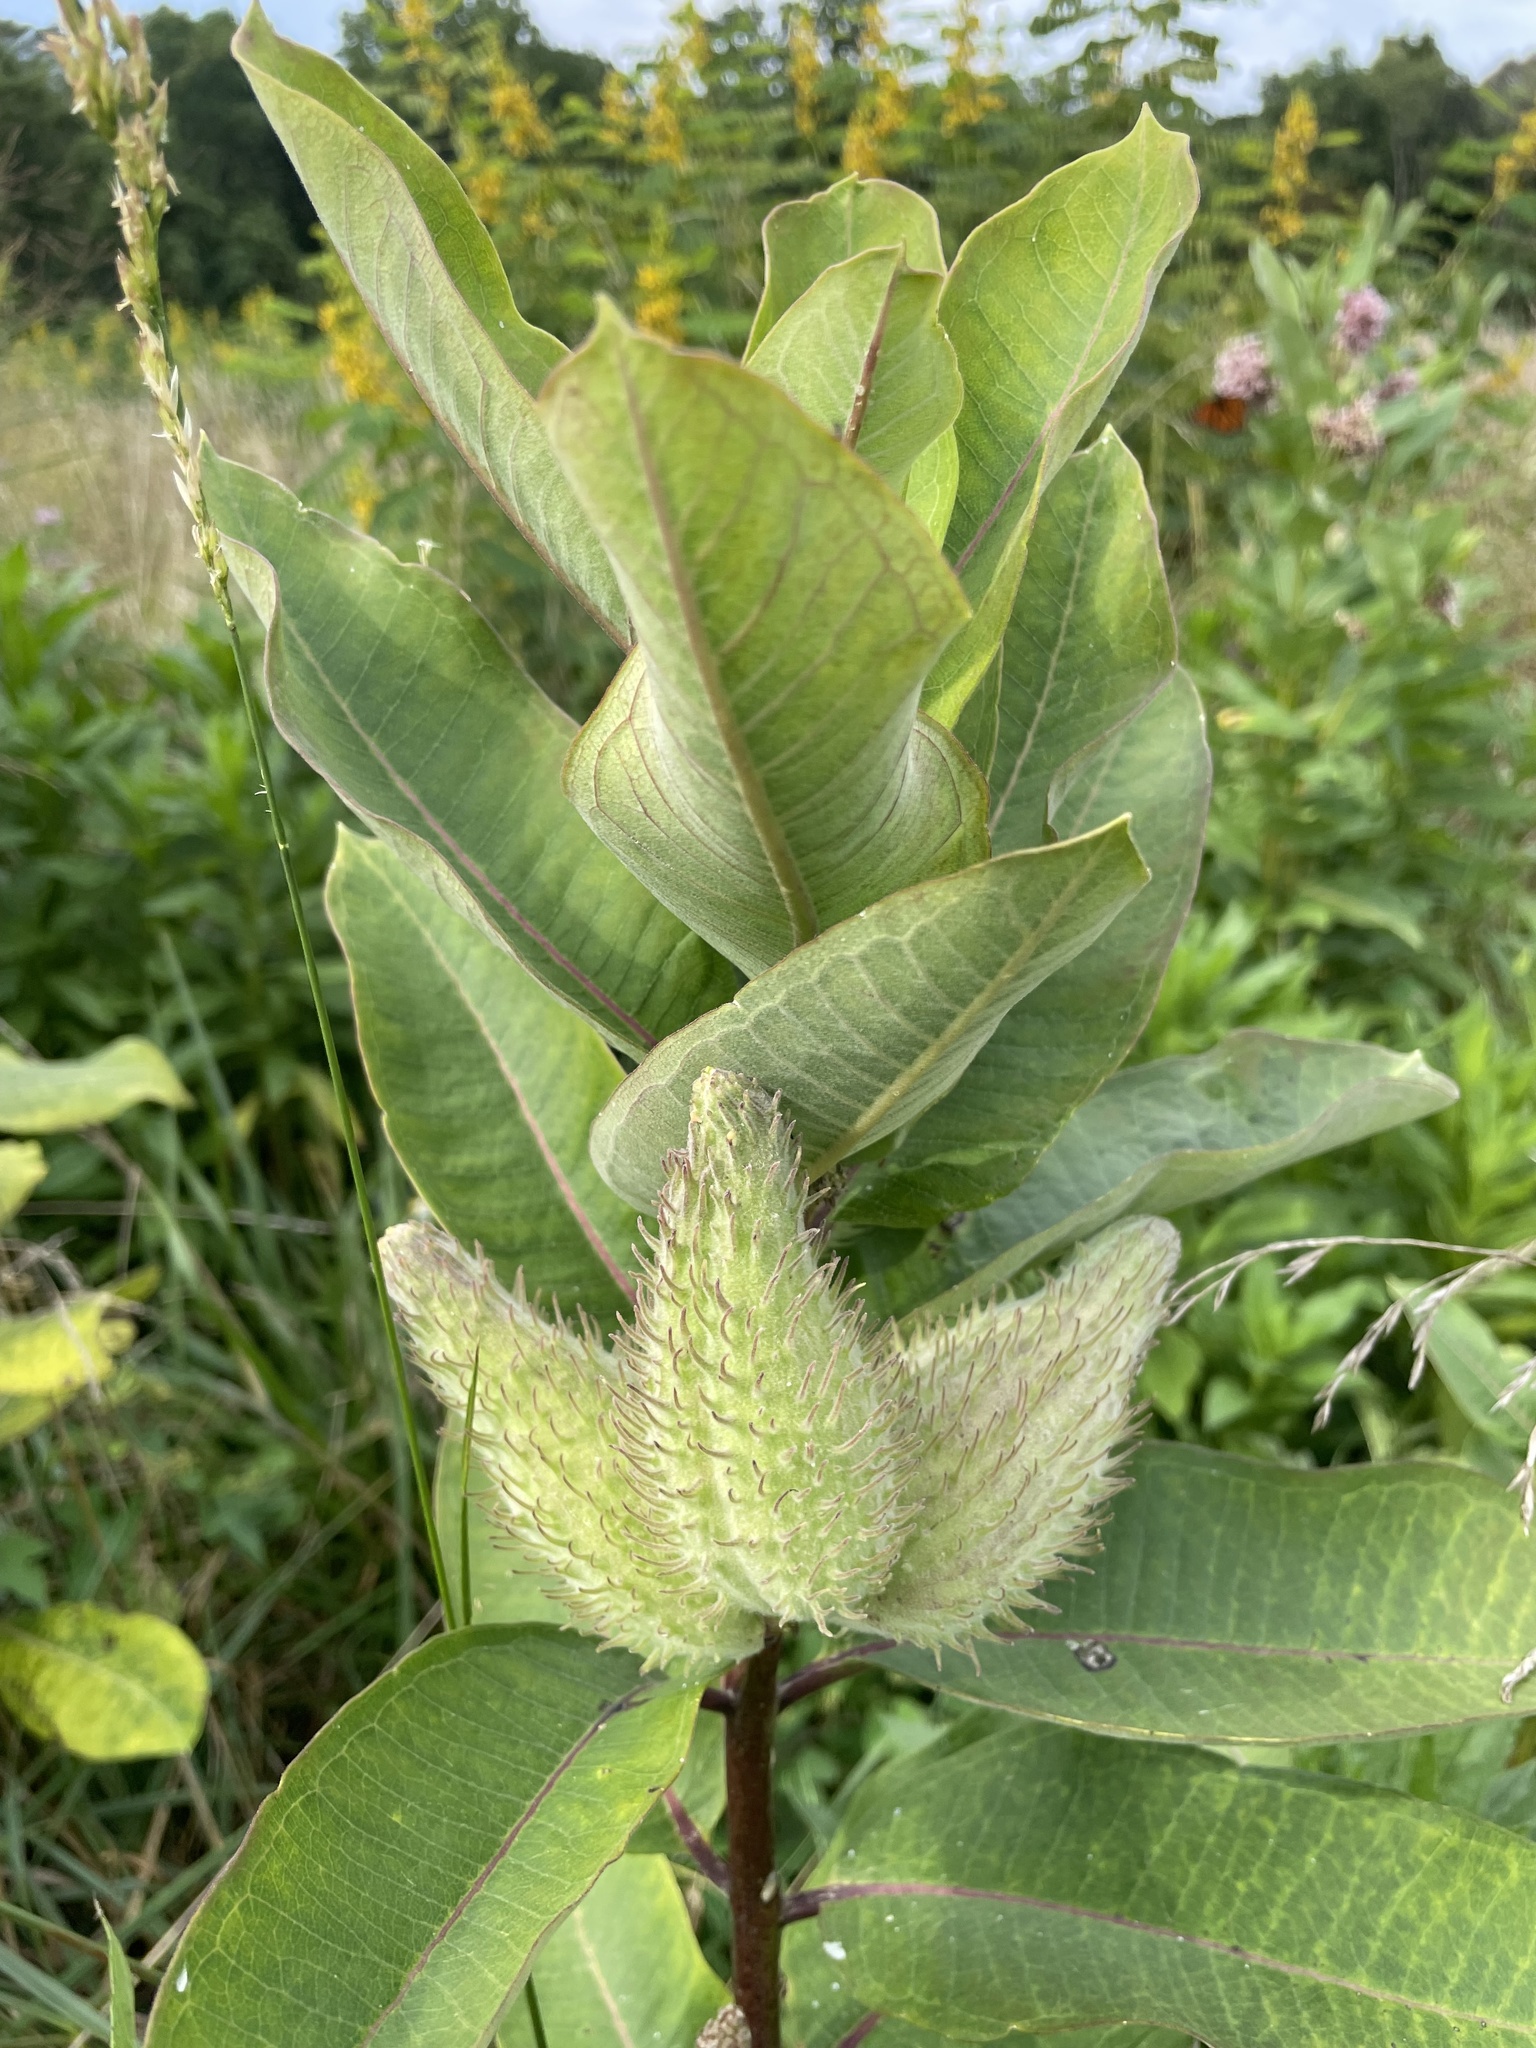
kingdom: Plantae
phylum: Tracheophyta
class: Magnoliopsida
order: Gentianales
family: Apocynaceae
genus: Asclepias
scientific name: Asclepias syriaca
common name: Common milkweed
